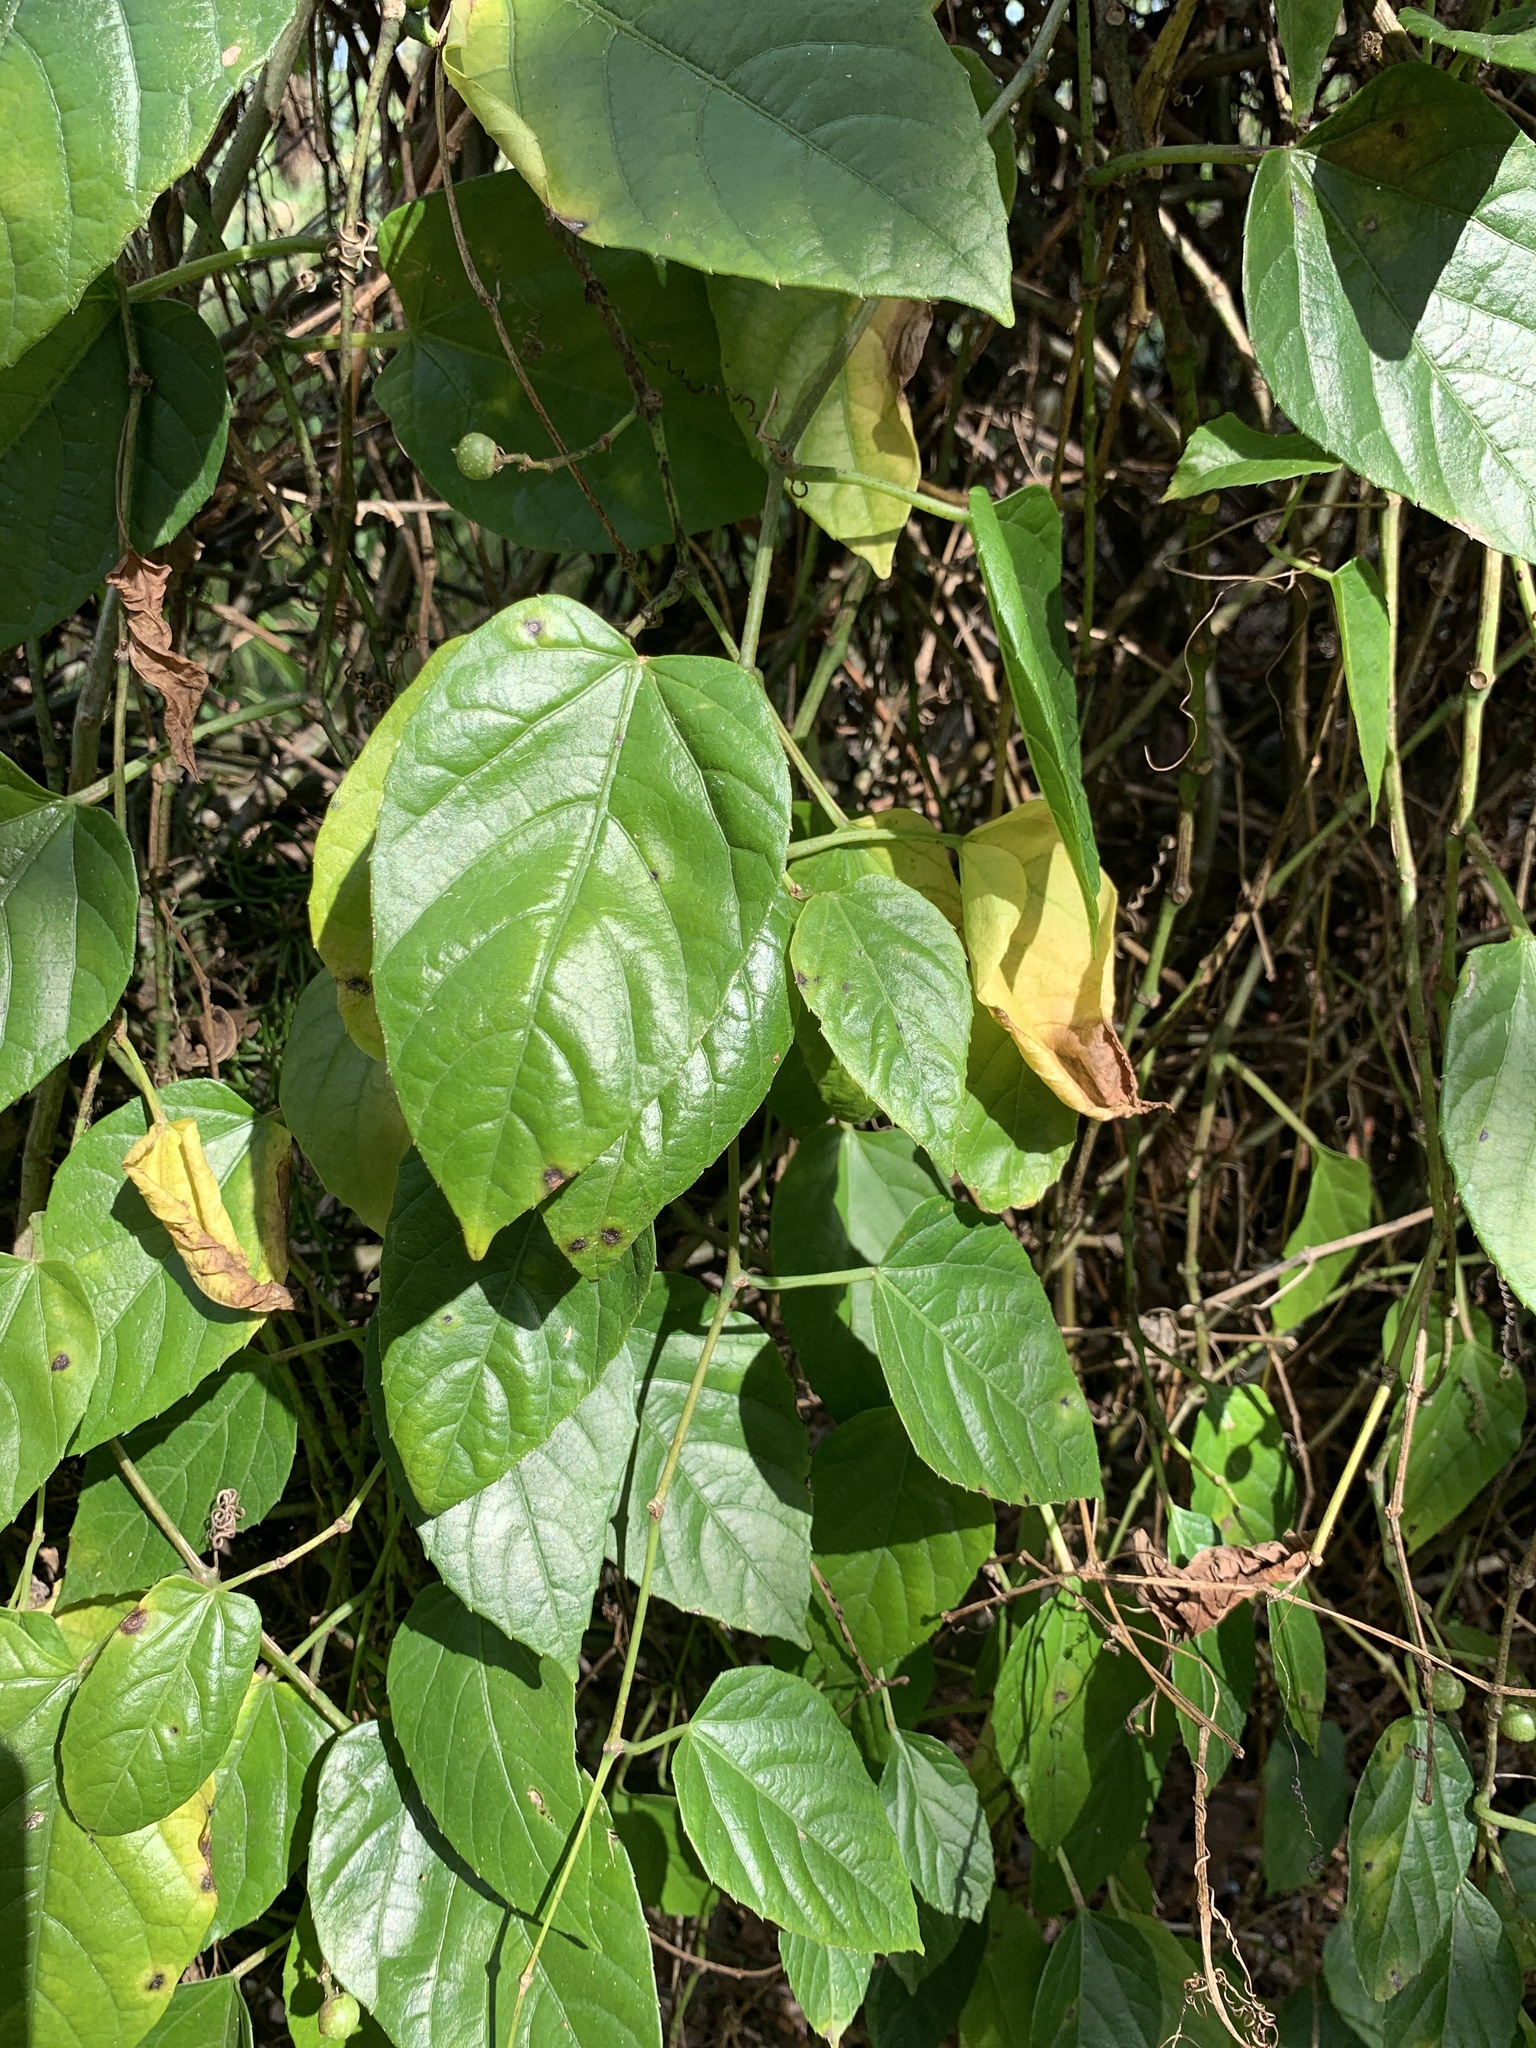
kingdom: Plantae
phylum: Tracheophyta
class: Magnoliopsida
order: Vitales
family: Vitaceae
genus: Cissus
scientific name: Cissus verticillata
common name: Princess vine
